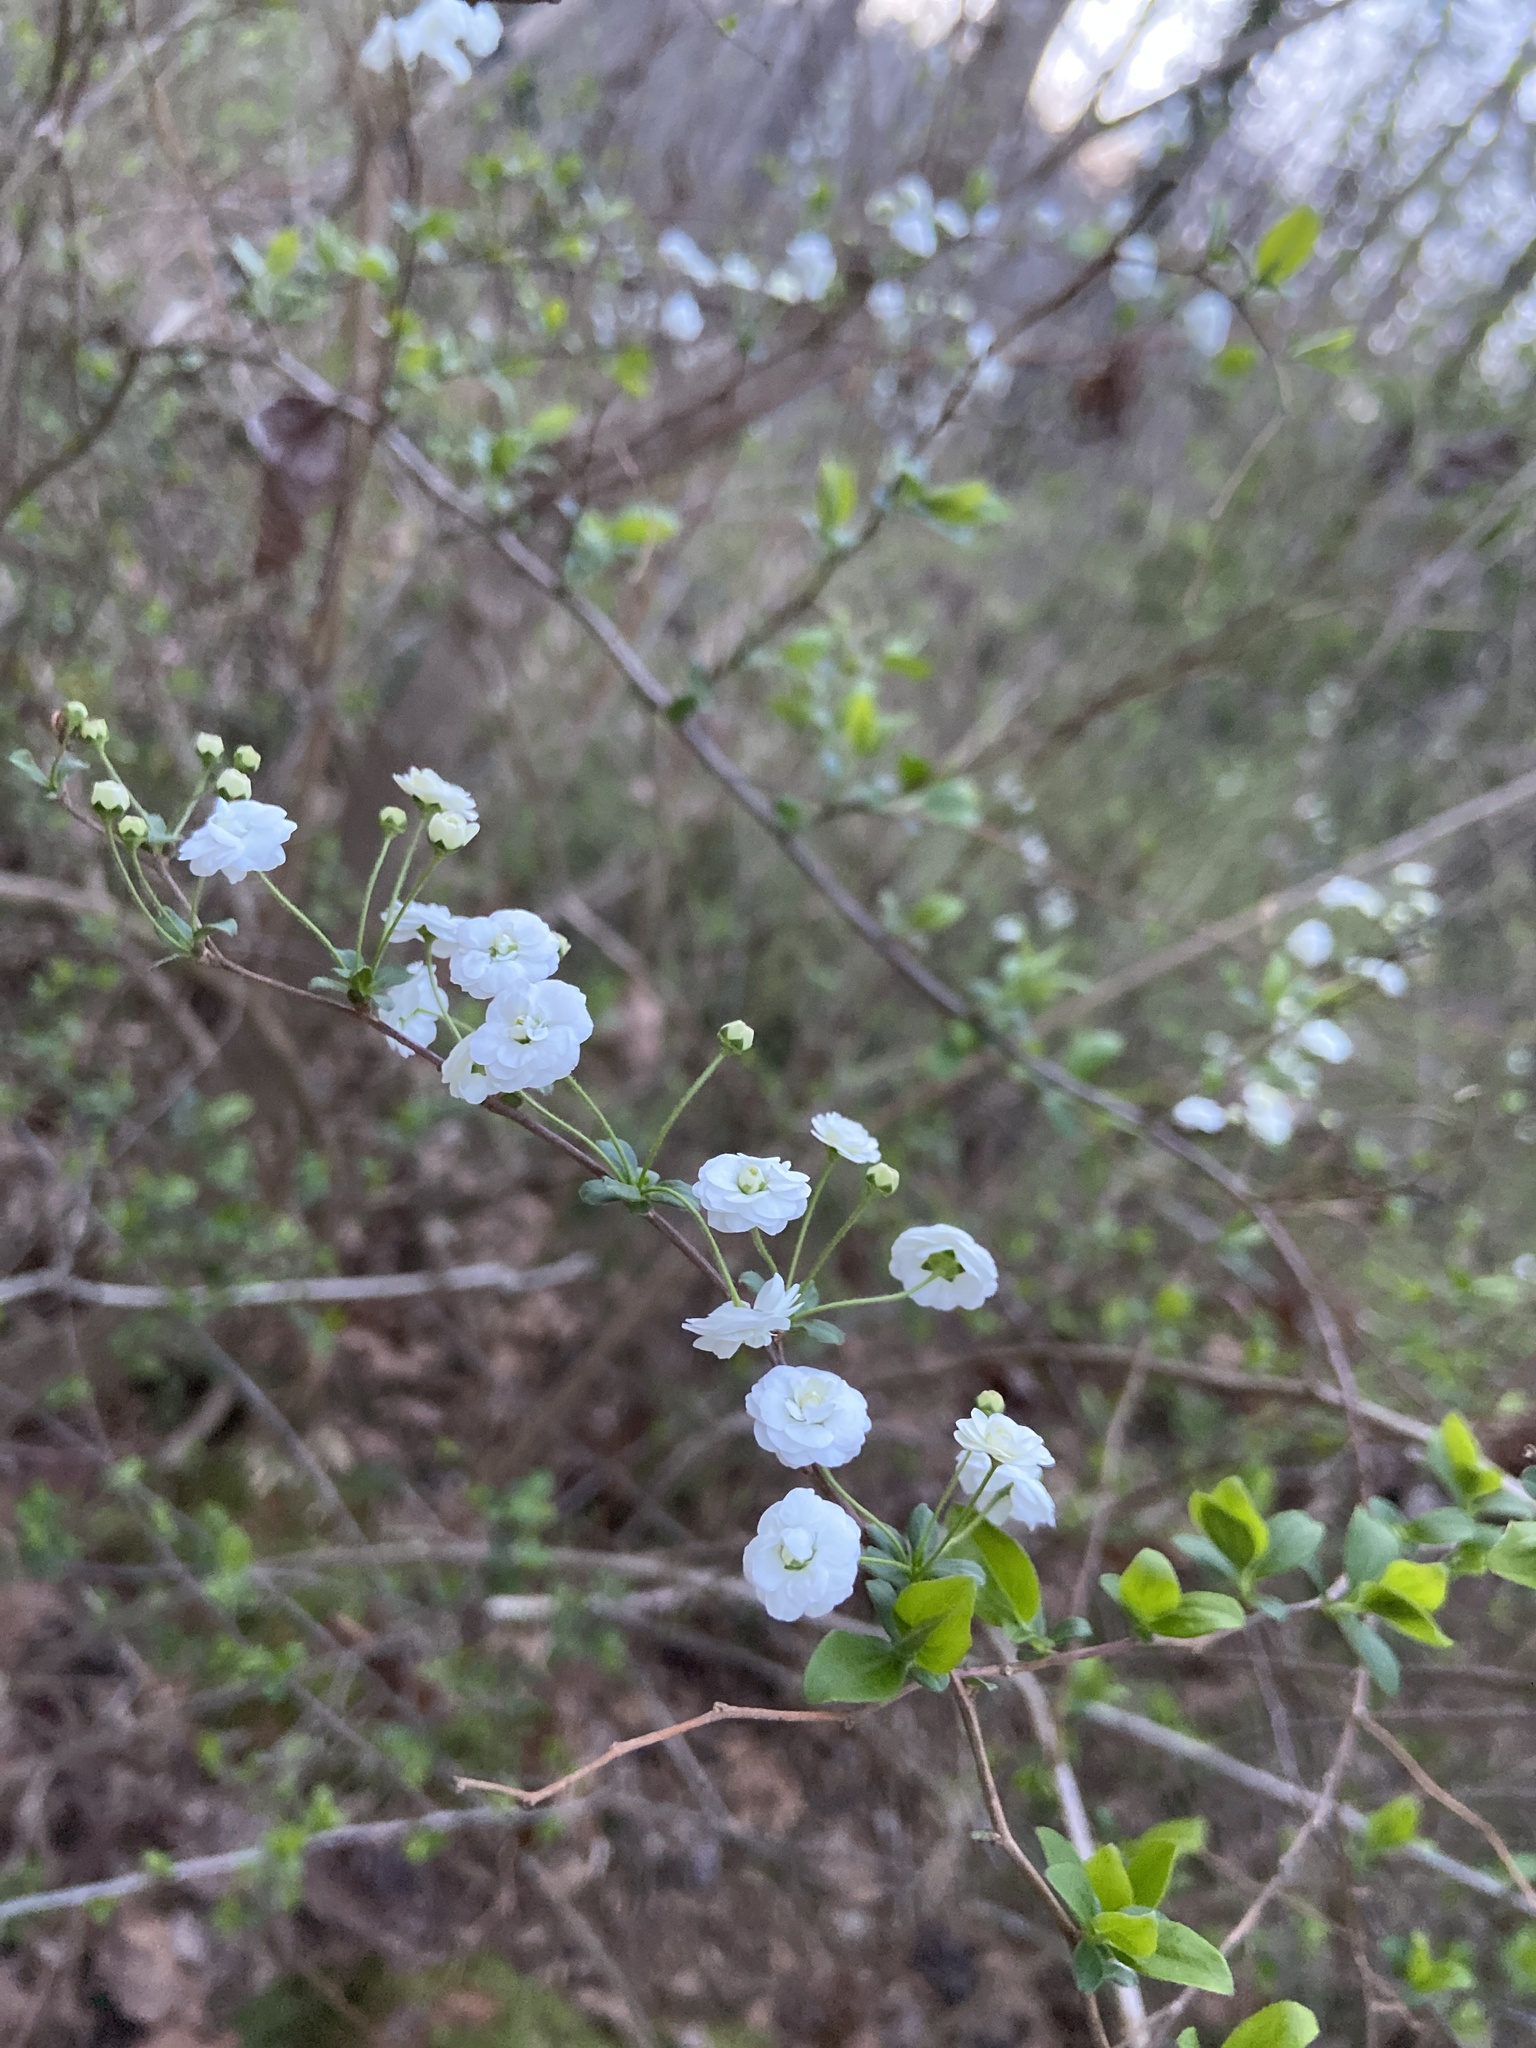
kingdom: Plantae
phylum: Tracheophyta
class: Magnoliopsida
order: Rosales
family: Rosaceae
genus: Spiraea
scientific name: Spiraea prunifolia
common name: Bridal-wreath spiraea
